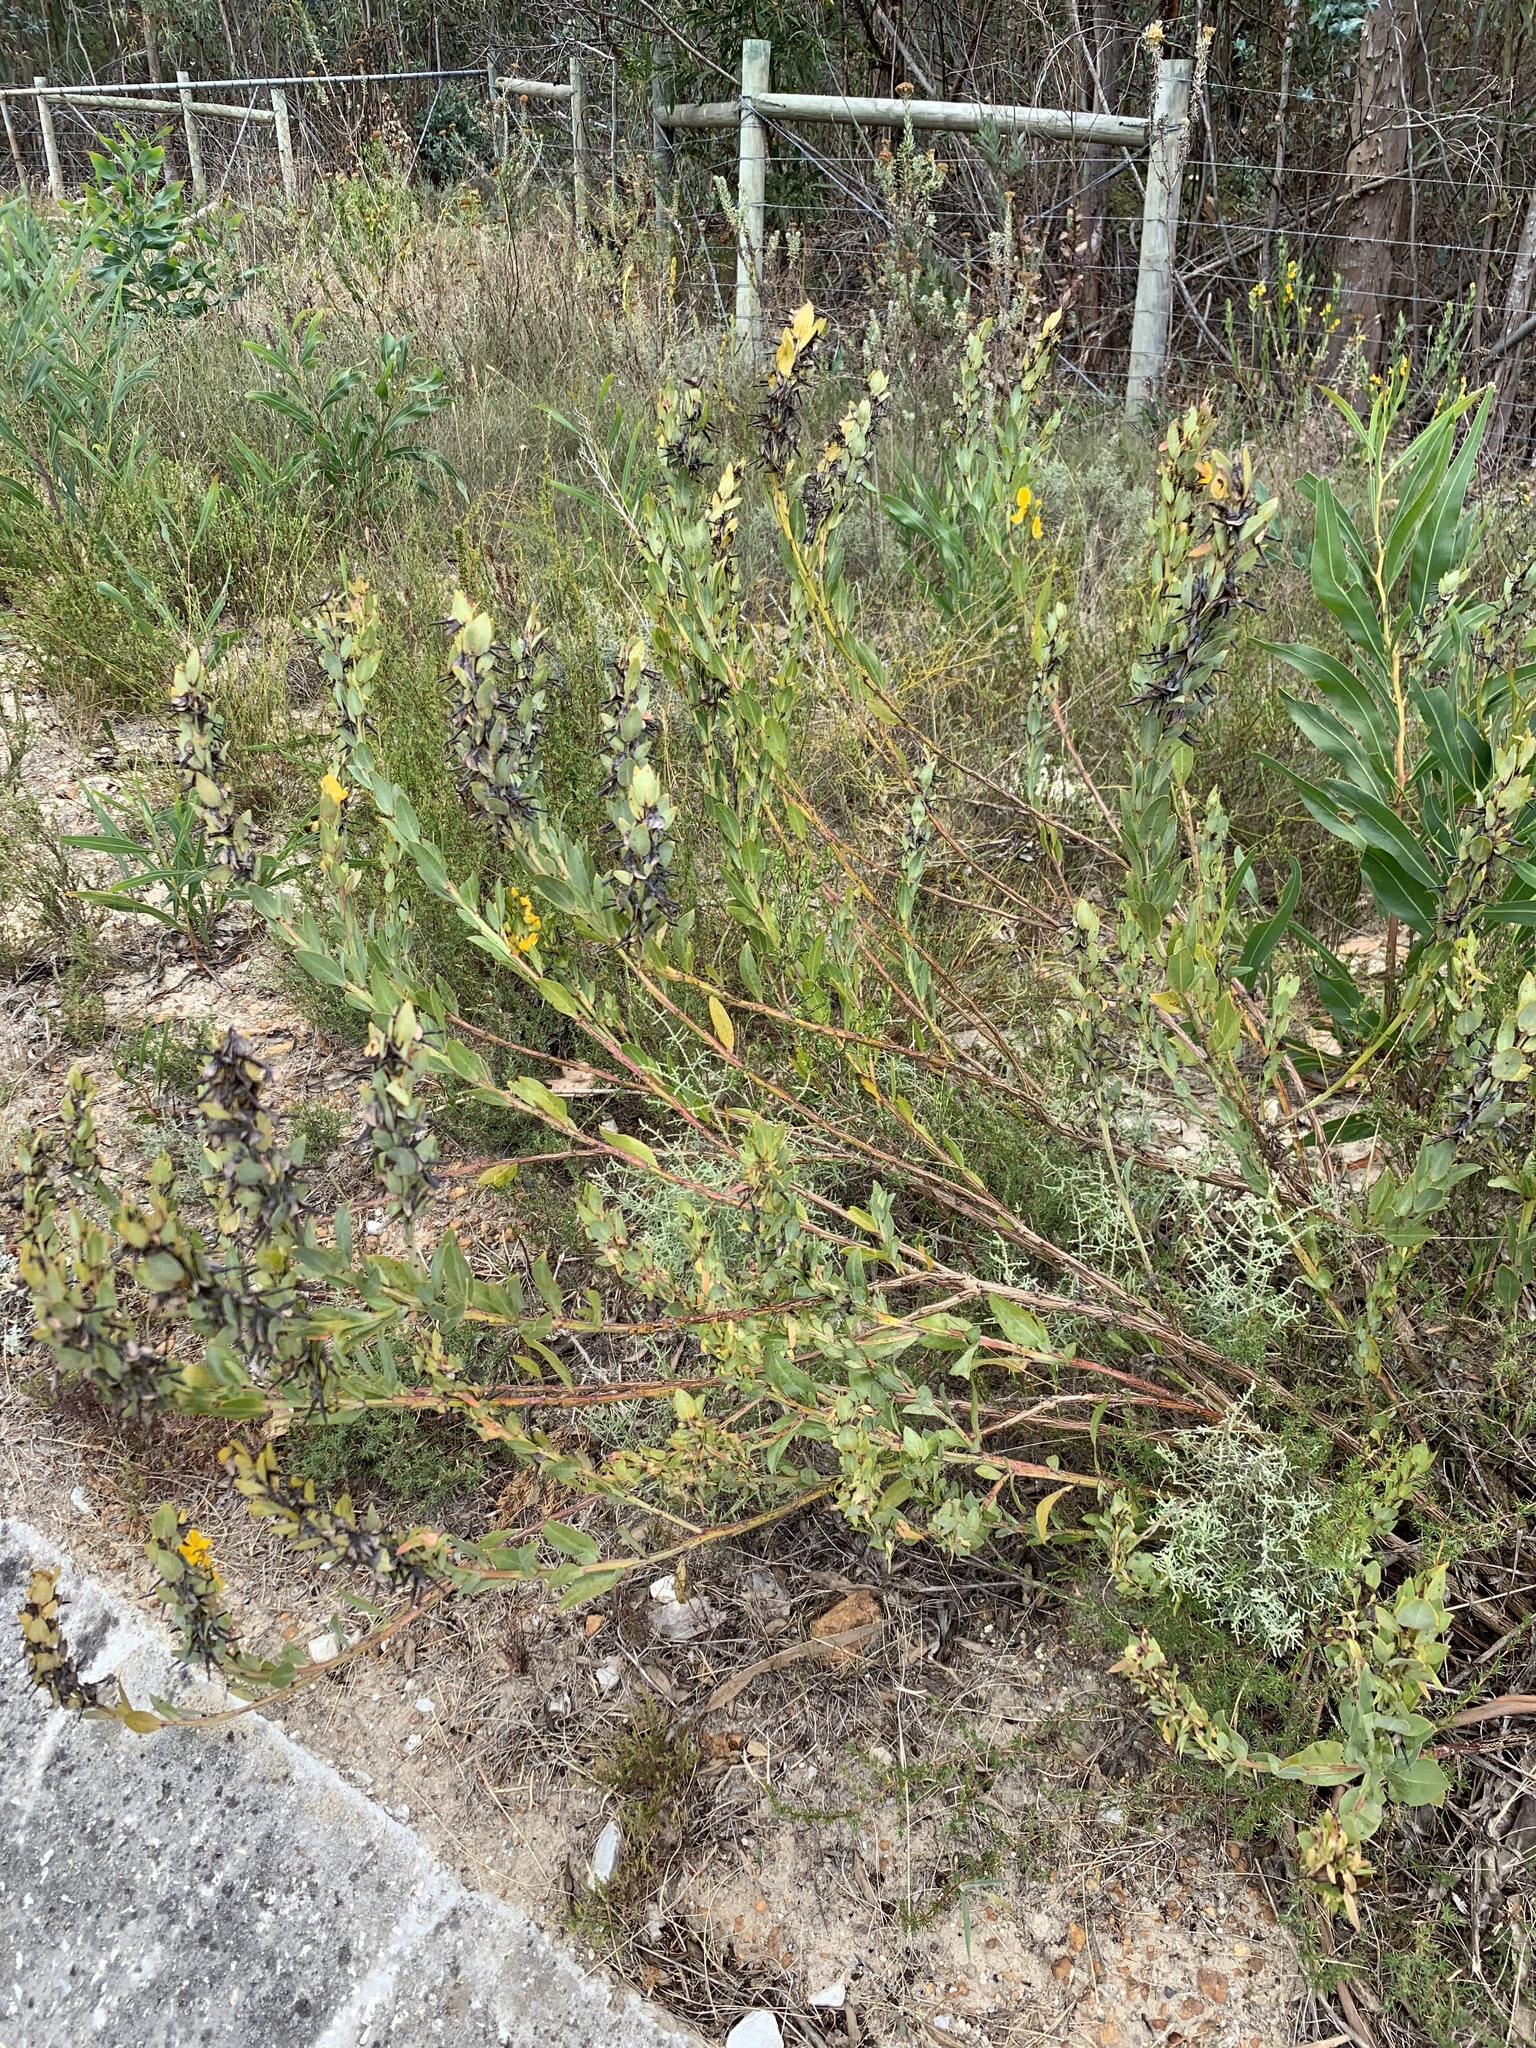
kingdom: Plantae
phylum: Tracheophyta
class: Magnoliopsida
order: Fabales
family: Fabaceae
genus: Rafnia
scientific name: Rafnia crassifolia
